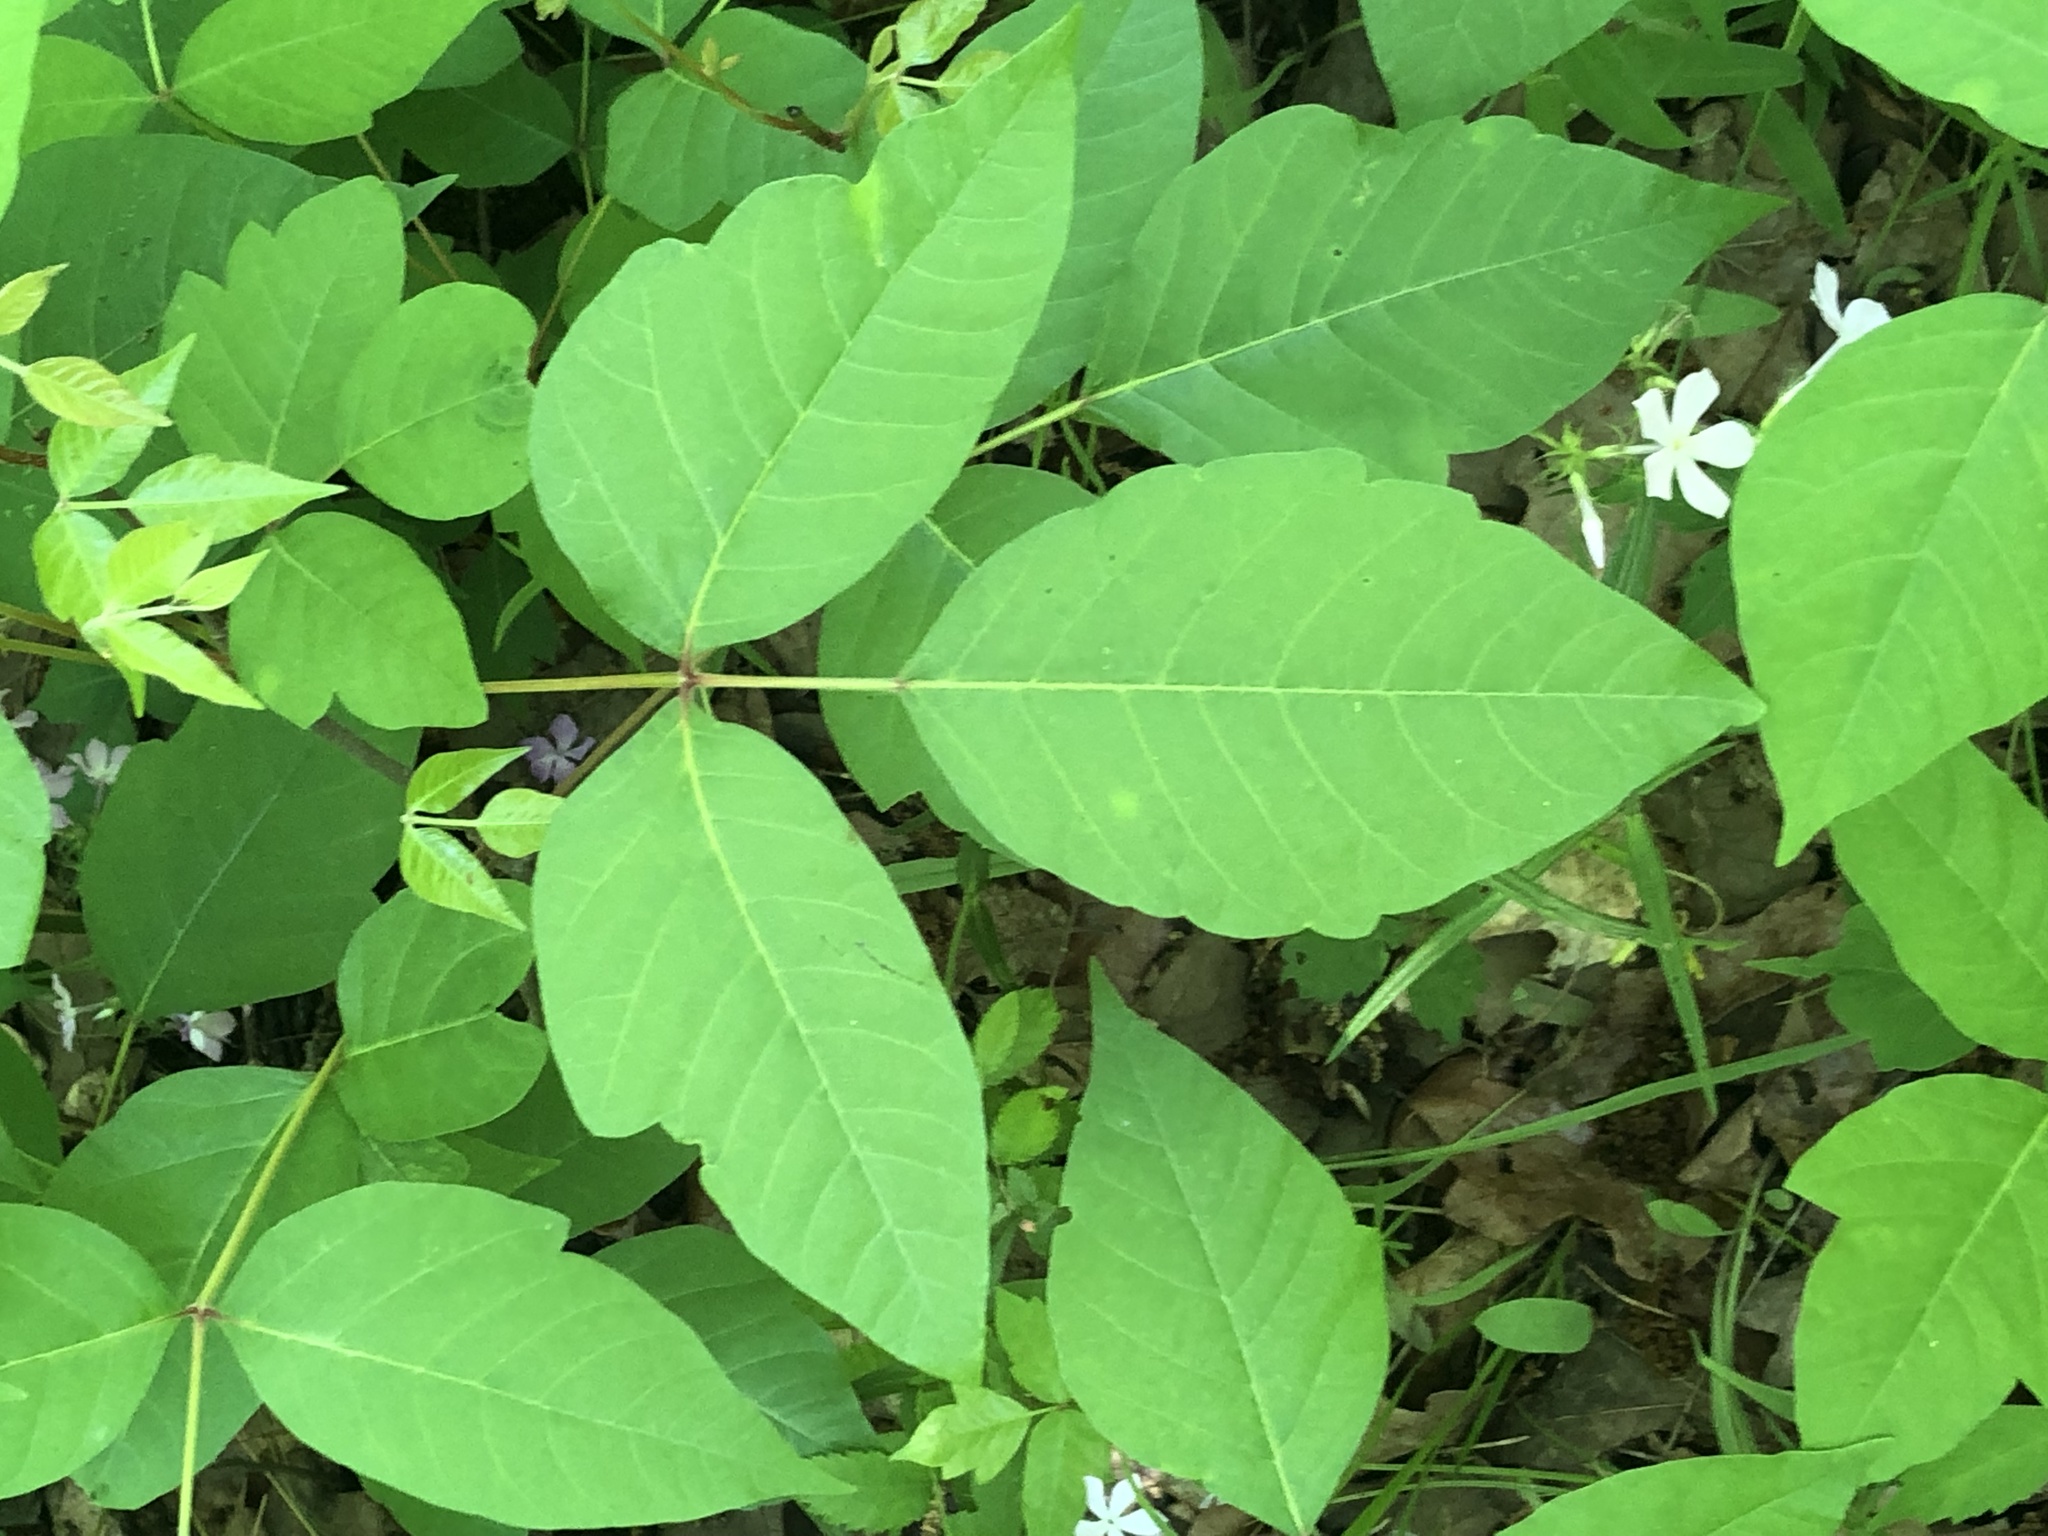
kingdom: Plantae
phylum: Tracheophyta
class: Magnoliopsida
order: Sapindales
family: Anacardiaceae
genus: Toxicodendron
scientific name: Toxicodendron radicans
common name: Poison ivy
